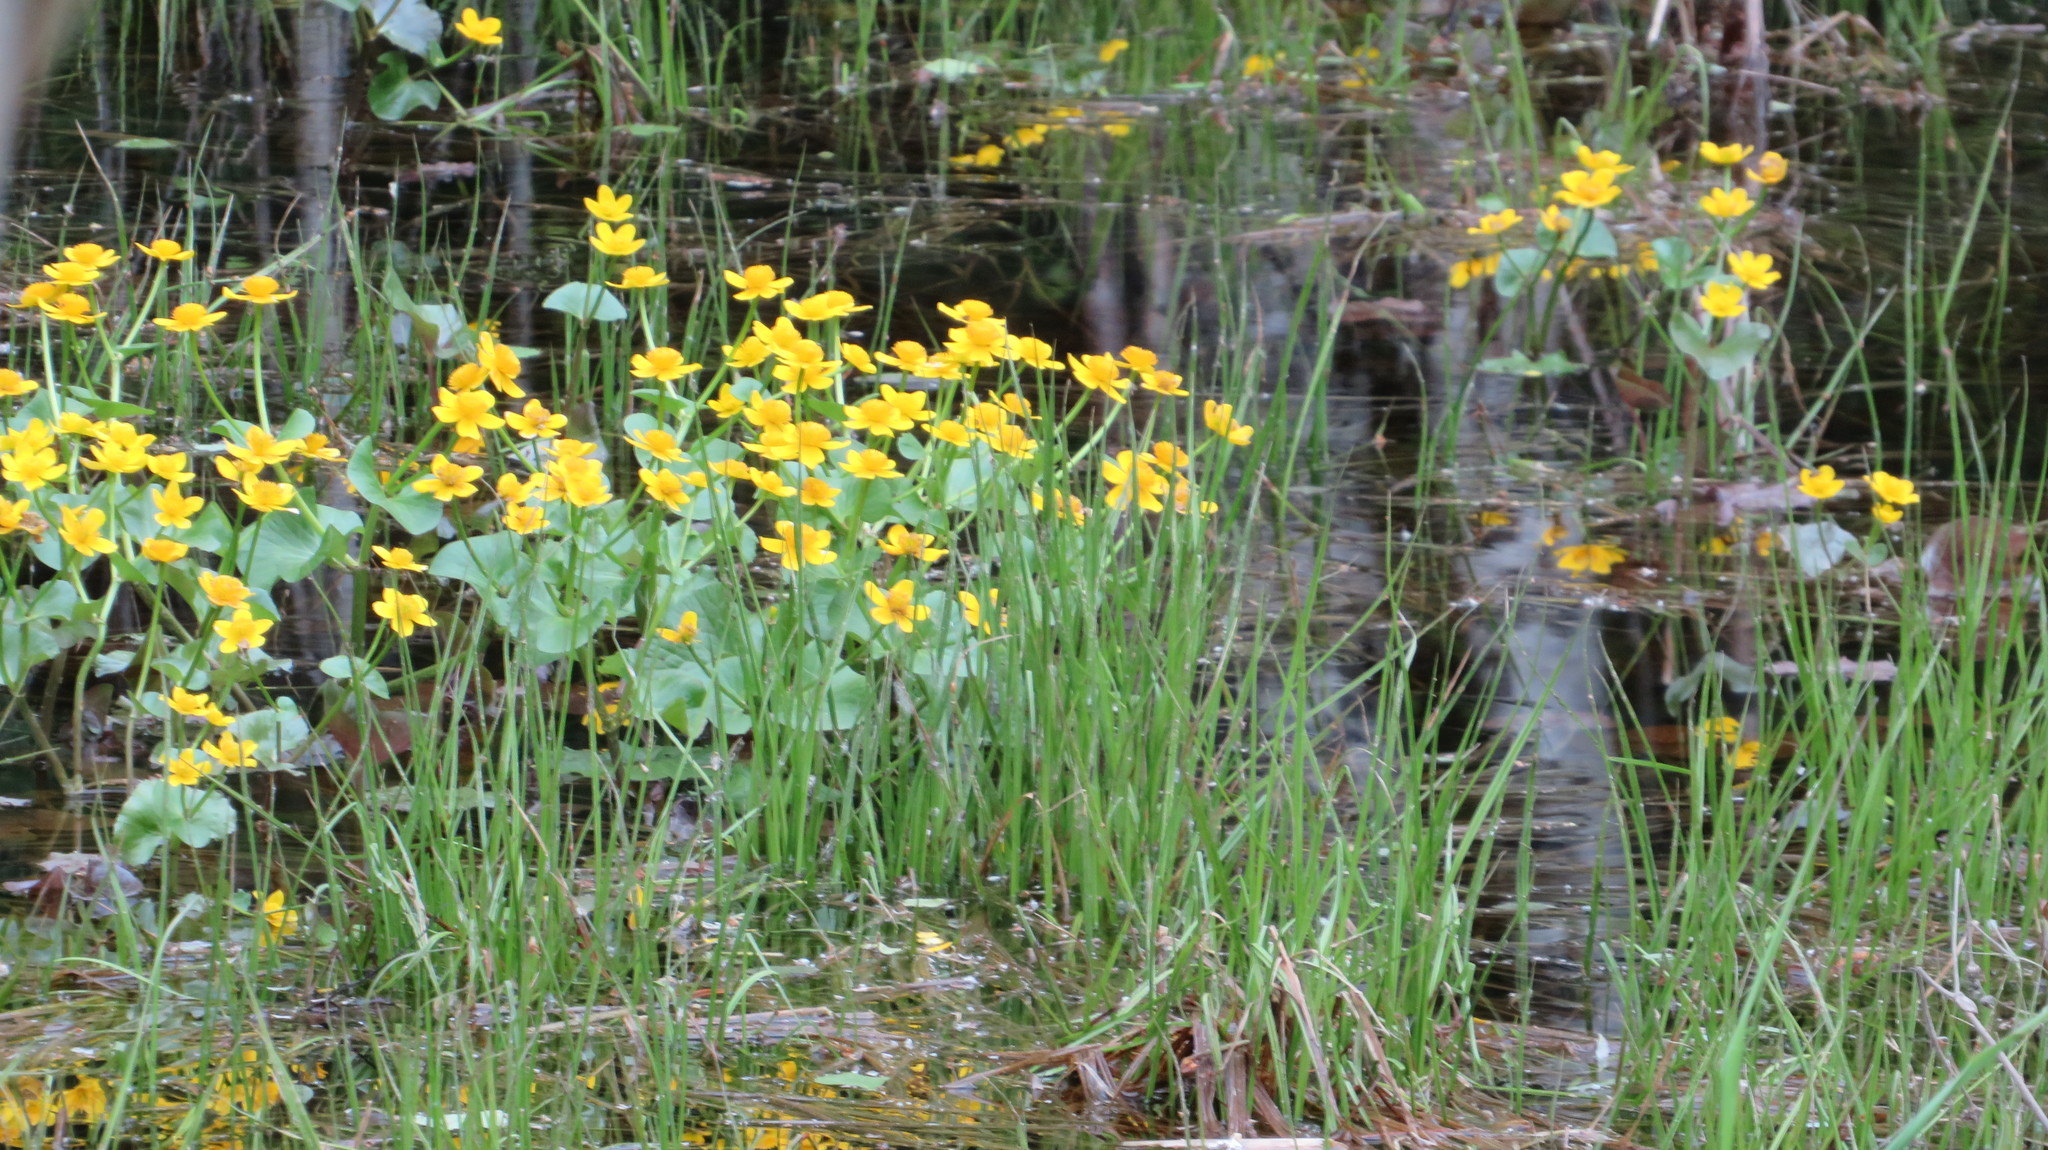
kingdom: Plantae
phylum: Tracheophyta
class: Magnoliopsida
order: Ranunculales
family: Ranunculaceae
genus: Caltha
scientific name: Caltha palustris
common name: Marsh marigold
